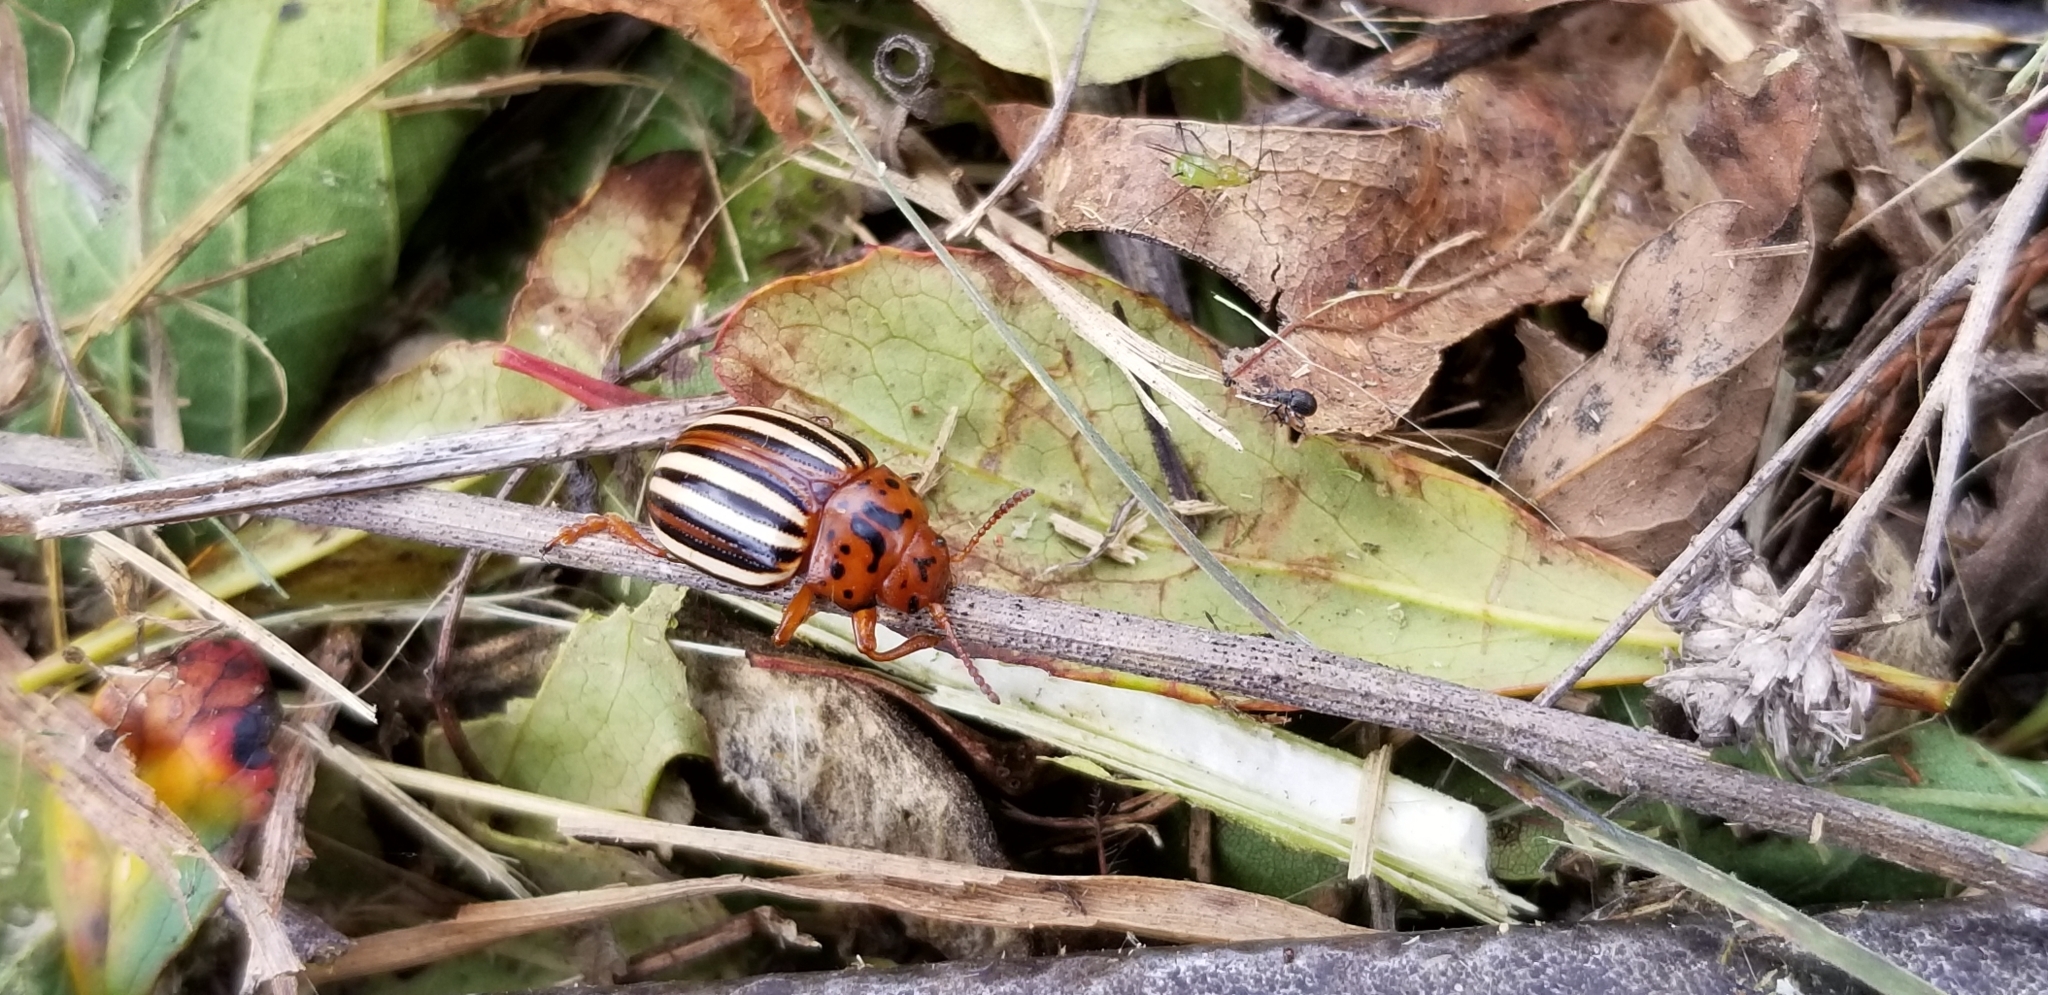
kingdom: Animalia
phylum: Arthropoda
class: Insecta
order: Coleoptera
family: Chrysomelidae
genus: Leptinotarsa
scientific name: Leptinotarsa juncta
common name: False potato beetle
